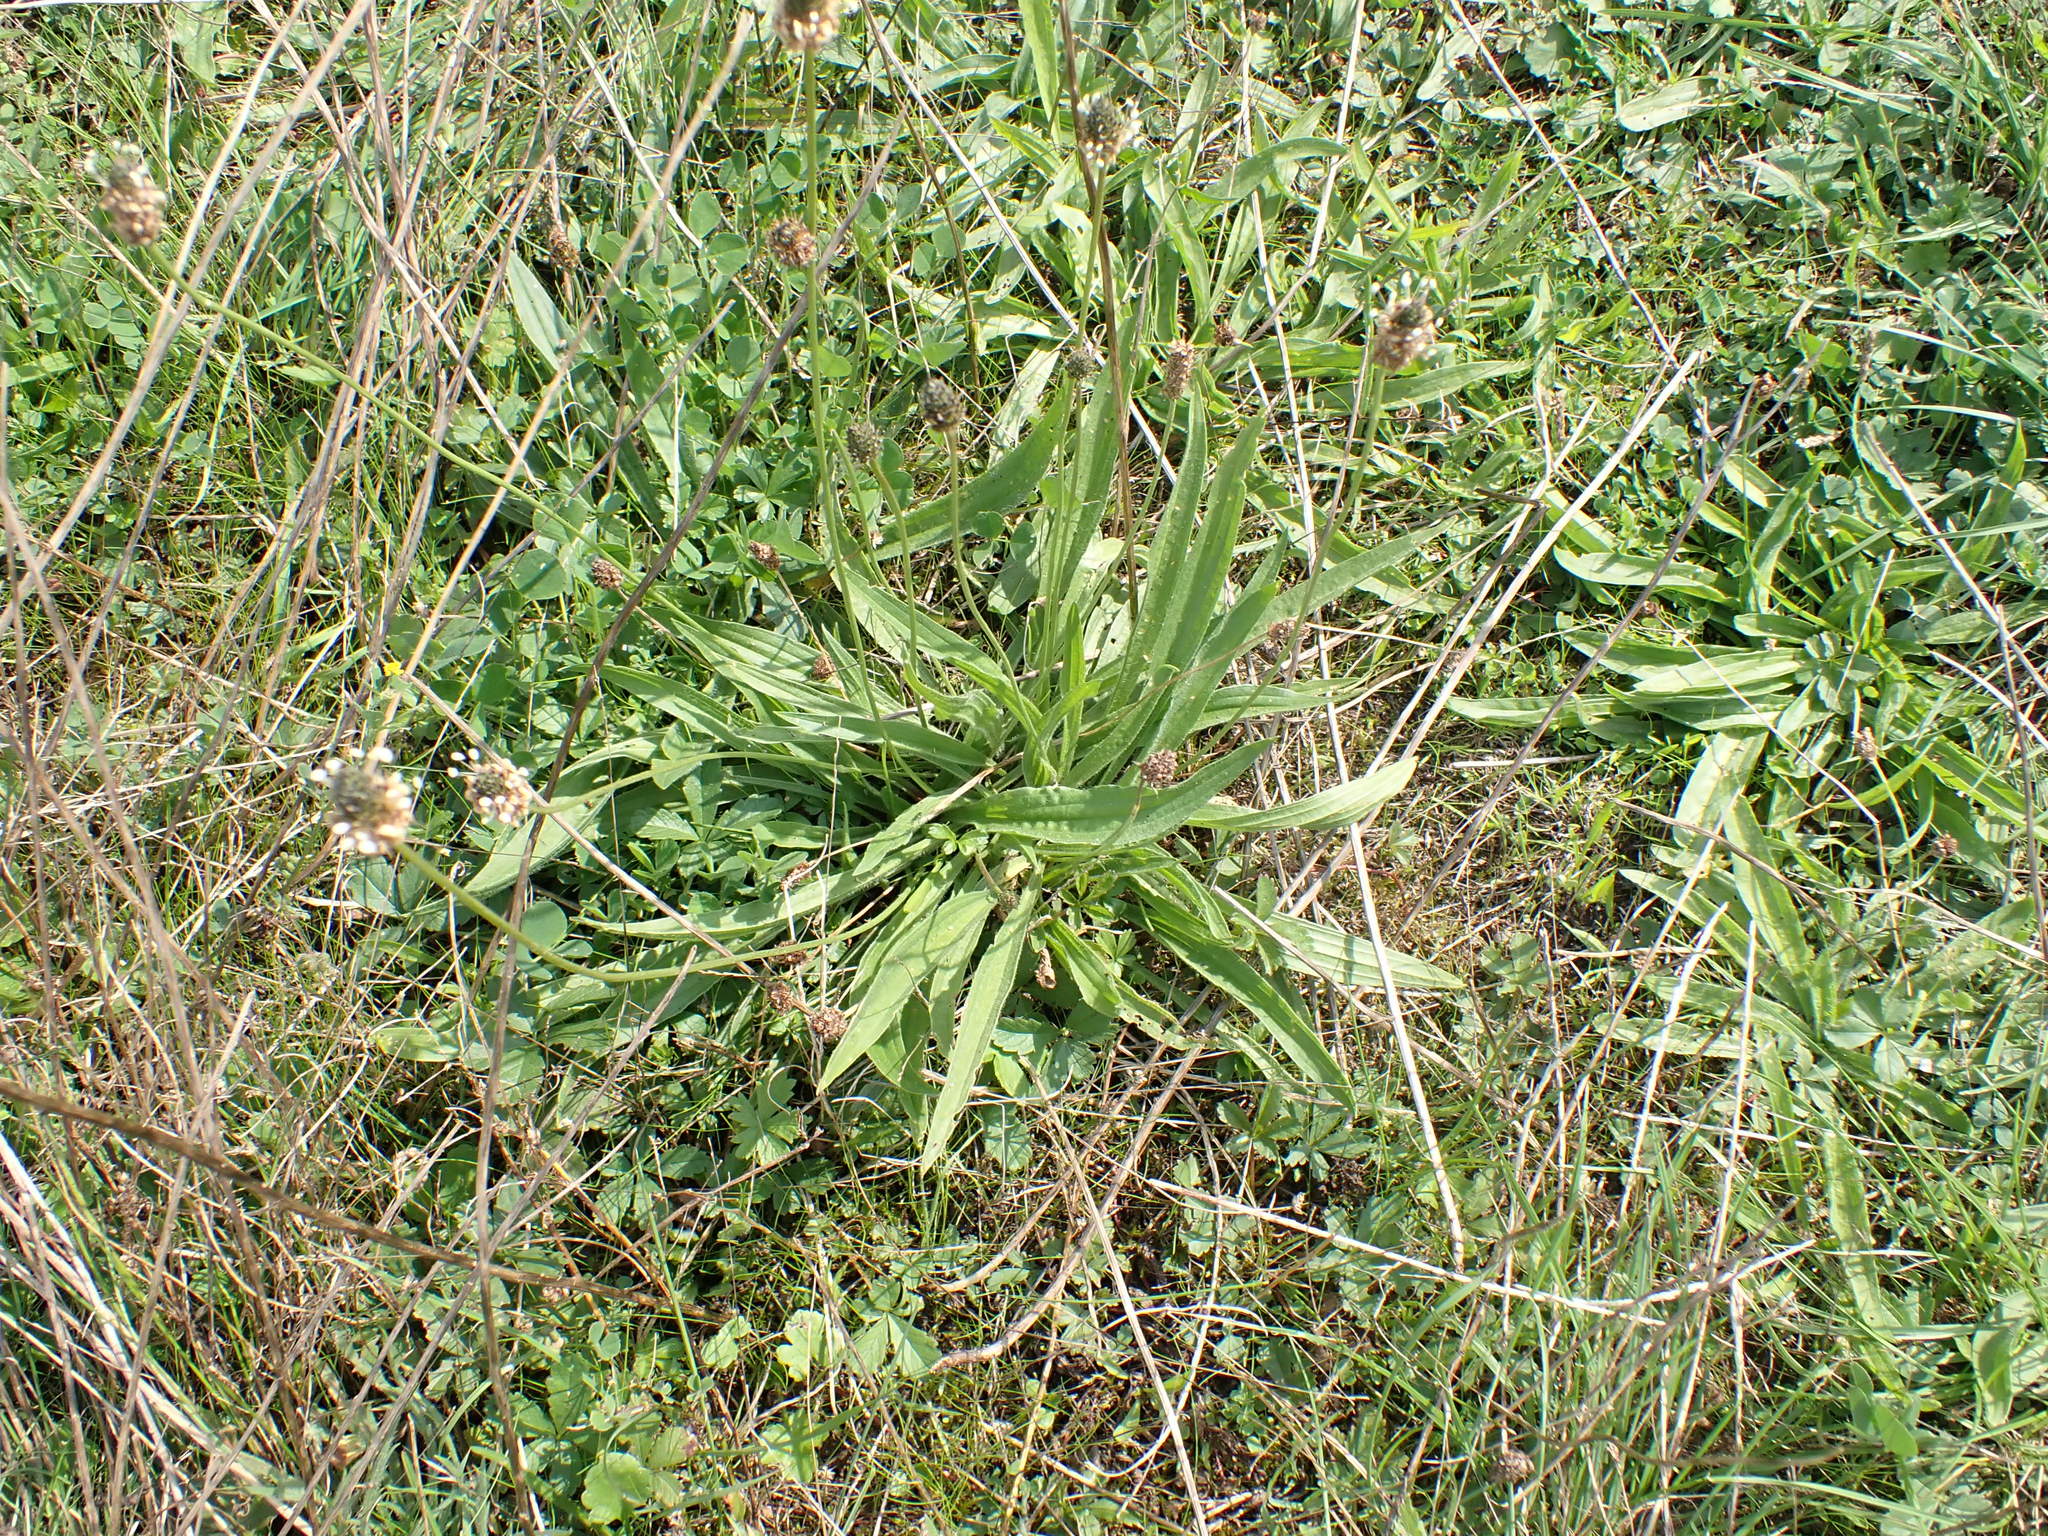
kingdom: Plantae
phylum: Tracheophyta
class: Magnoliopsida
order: Lamiales
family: Plantaginaceae
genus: Plantago
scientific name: Plantago lanceolata
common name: Ribwort plantain
